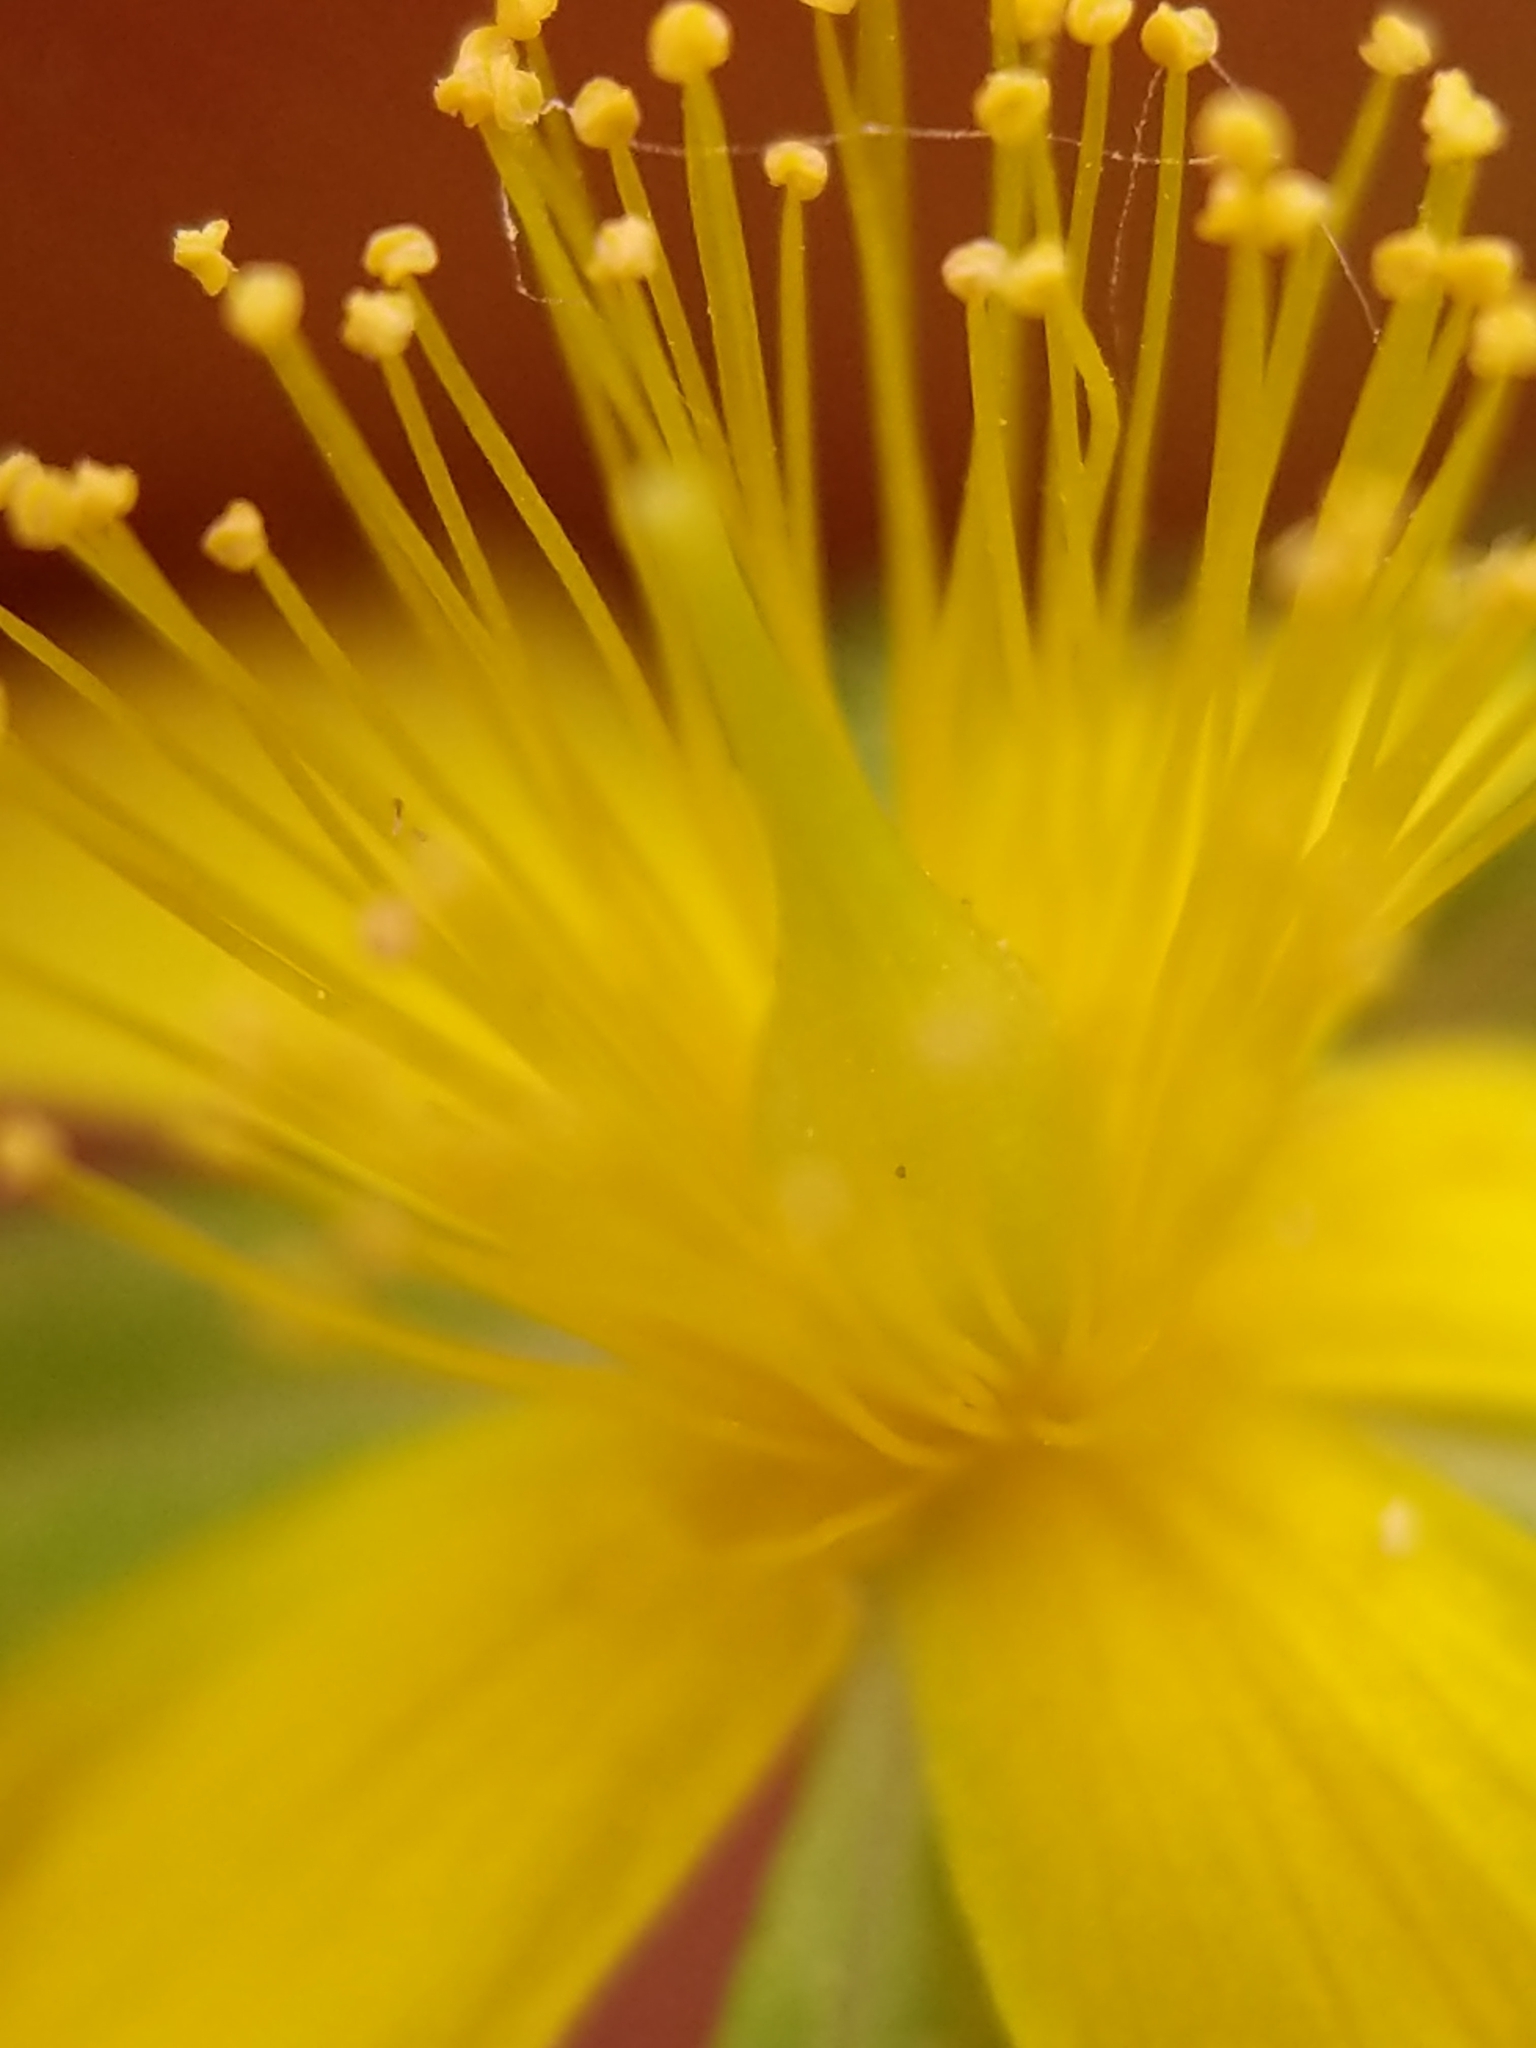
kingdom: Plantae
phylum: Tracheophyta
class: Magnoliopsida
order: Malpighiales
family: Hypericaceae
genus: Hypericum
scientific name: Hypericum ellipticum
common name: Elliptic st. john's-wort
